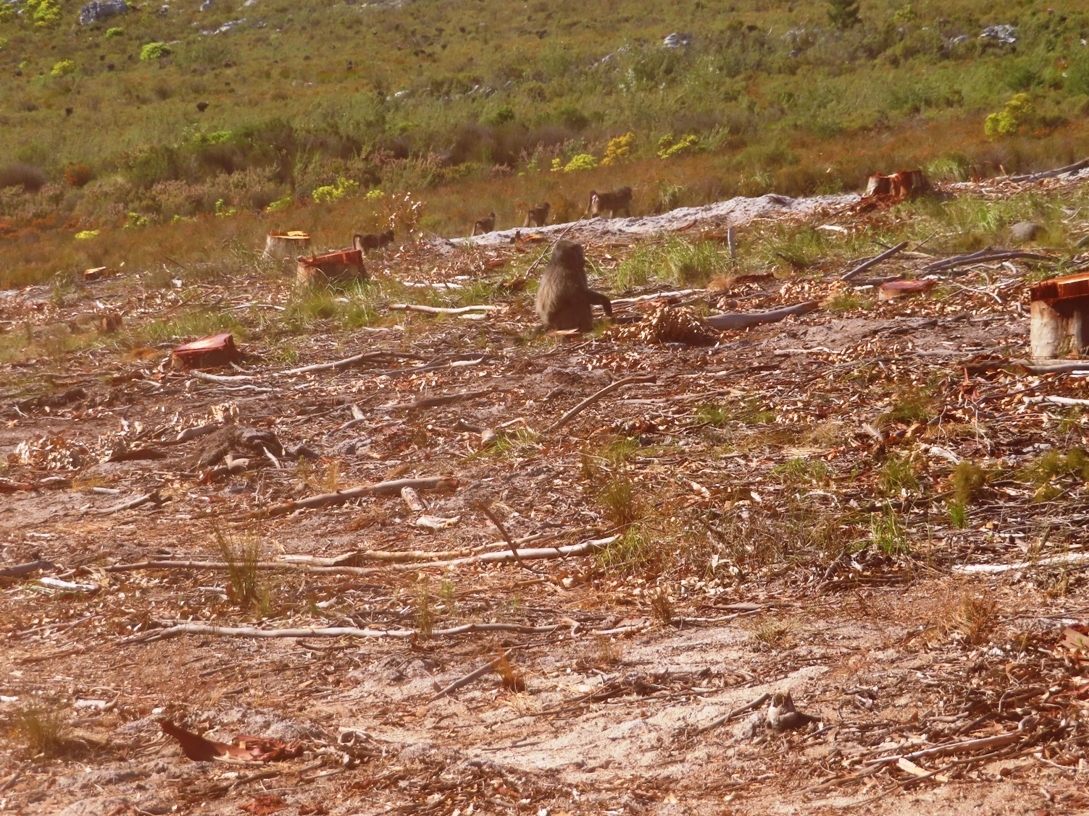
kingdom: Animalia
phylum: Chordata
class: Mammalia
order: Primates
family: Cercopithecidae
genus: Papio
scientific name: Papio ursinus
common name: Chacma baboon
